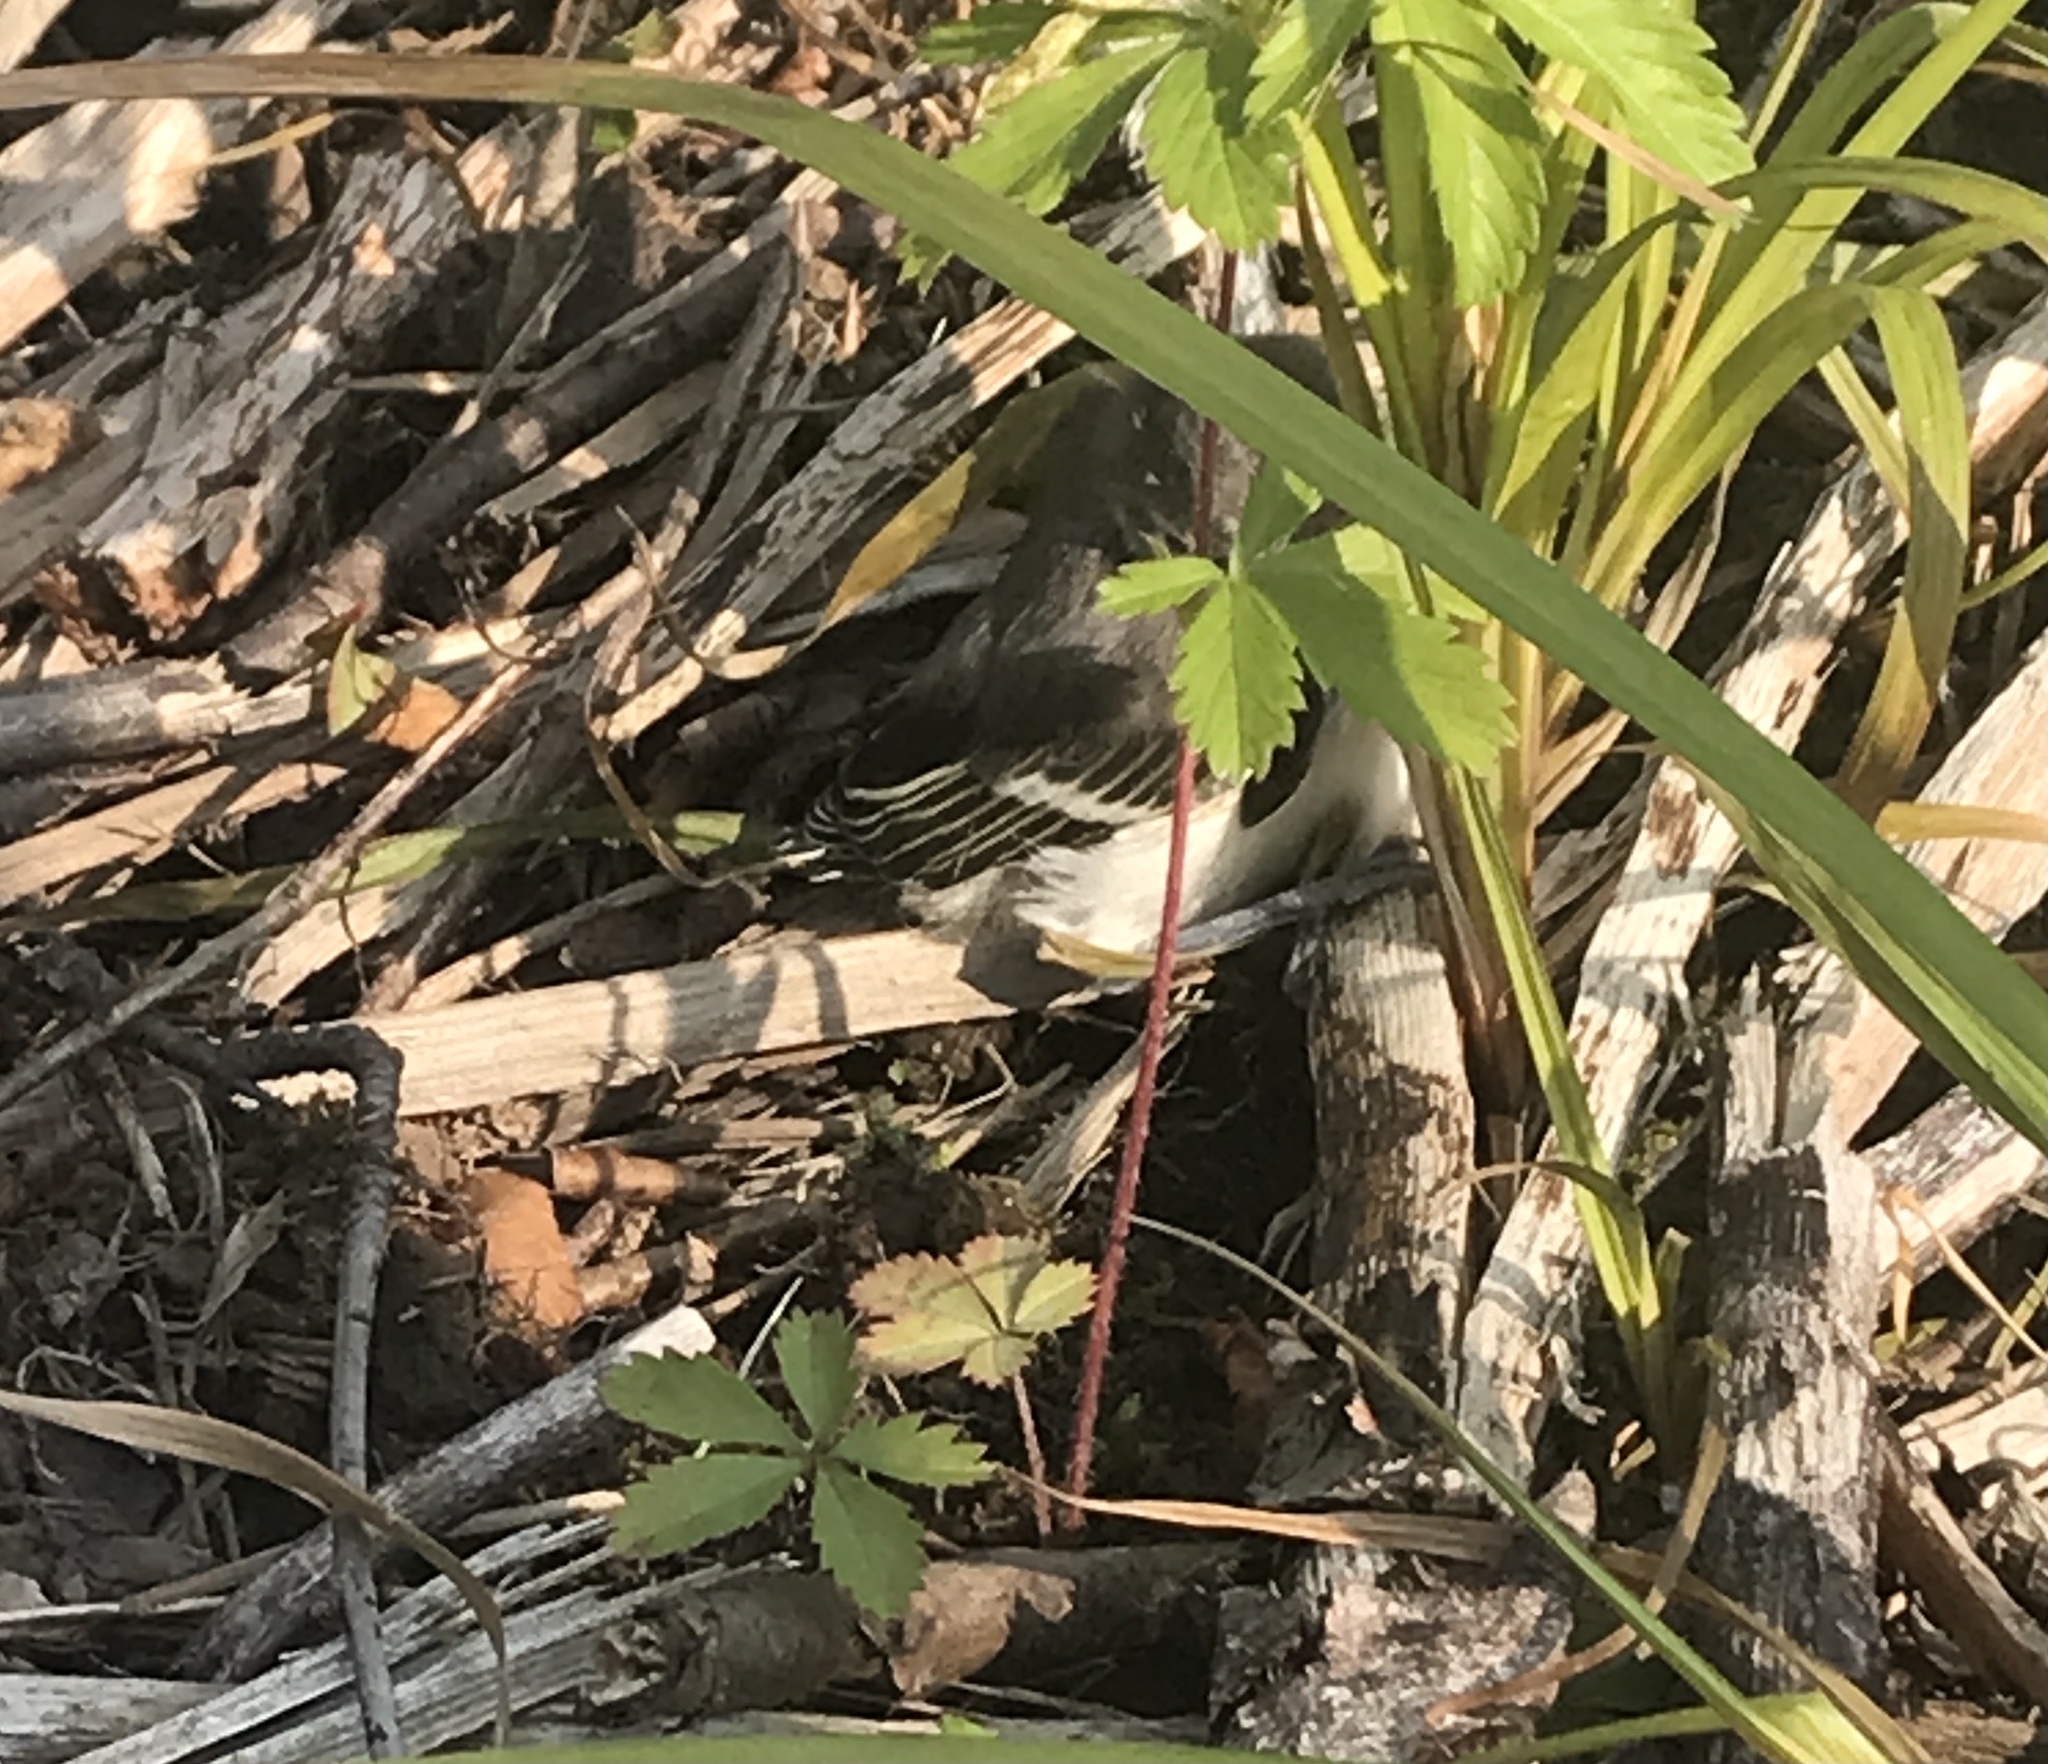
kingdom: Animalia
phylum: Chordata
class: Aves
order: Passeriformes
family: Mimidae
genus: Mimus
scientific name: Mimus polyglottos
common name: Northern mockingbird
